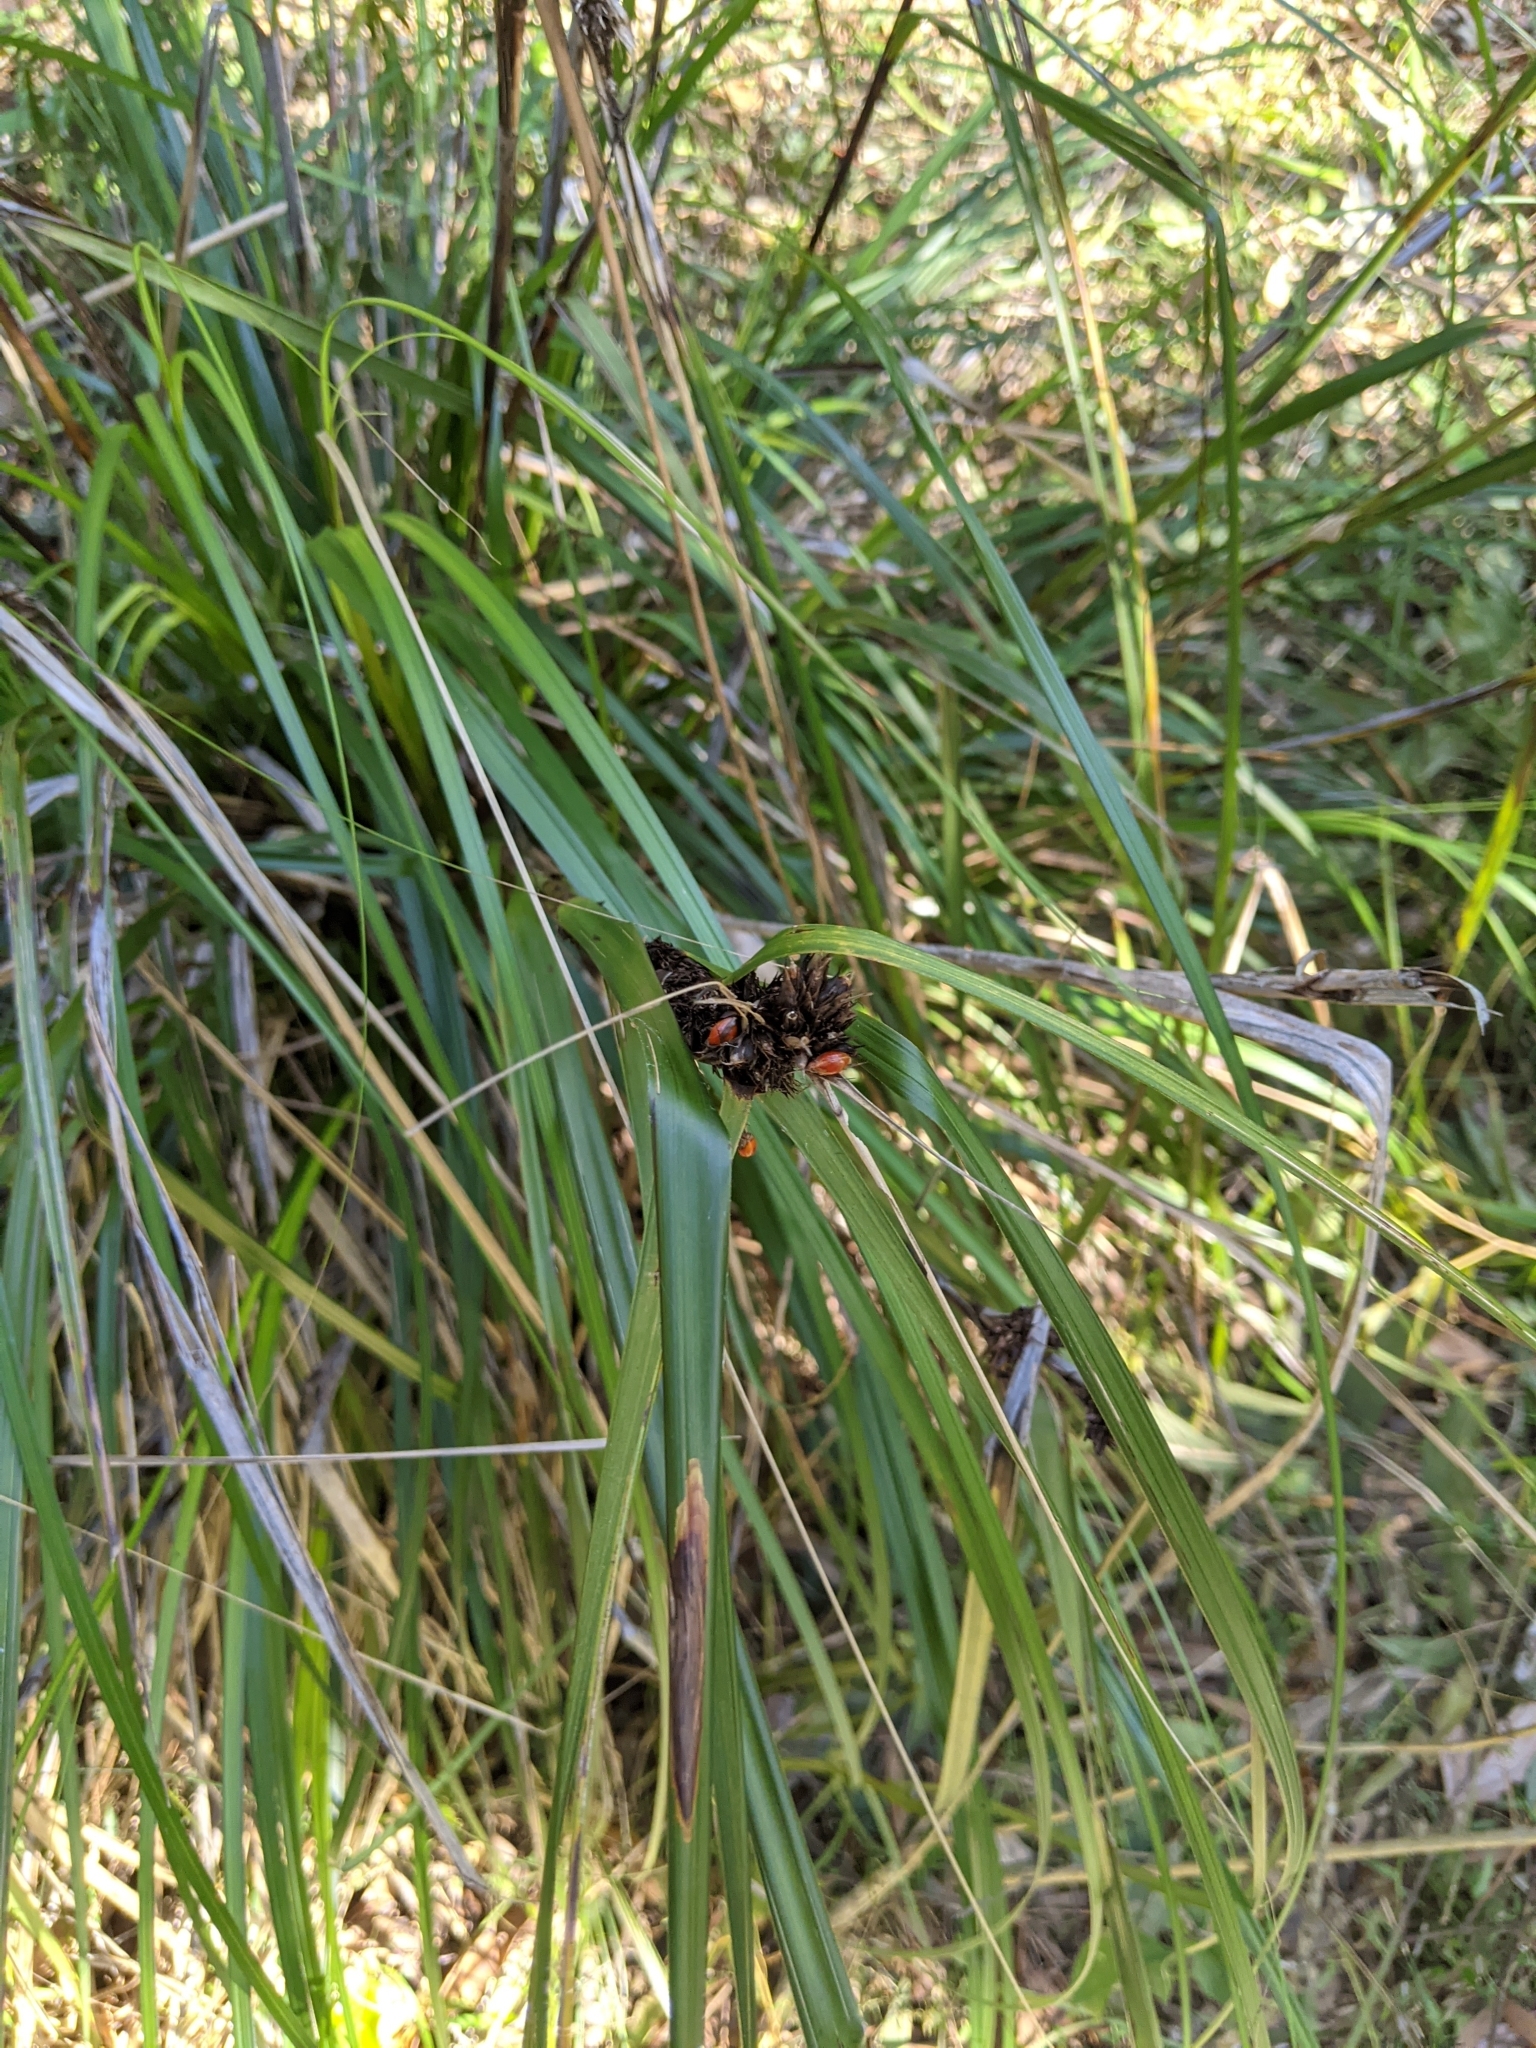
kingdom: Plantae
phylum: Tracheophyta
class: Liliopsida
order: Poales
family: Cyperaceae
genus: Gahnia
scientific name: Gahnia aspera
